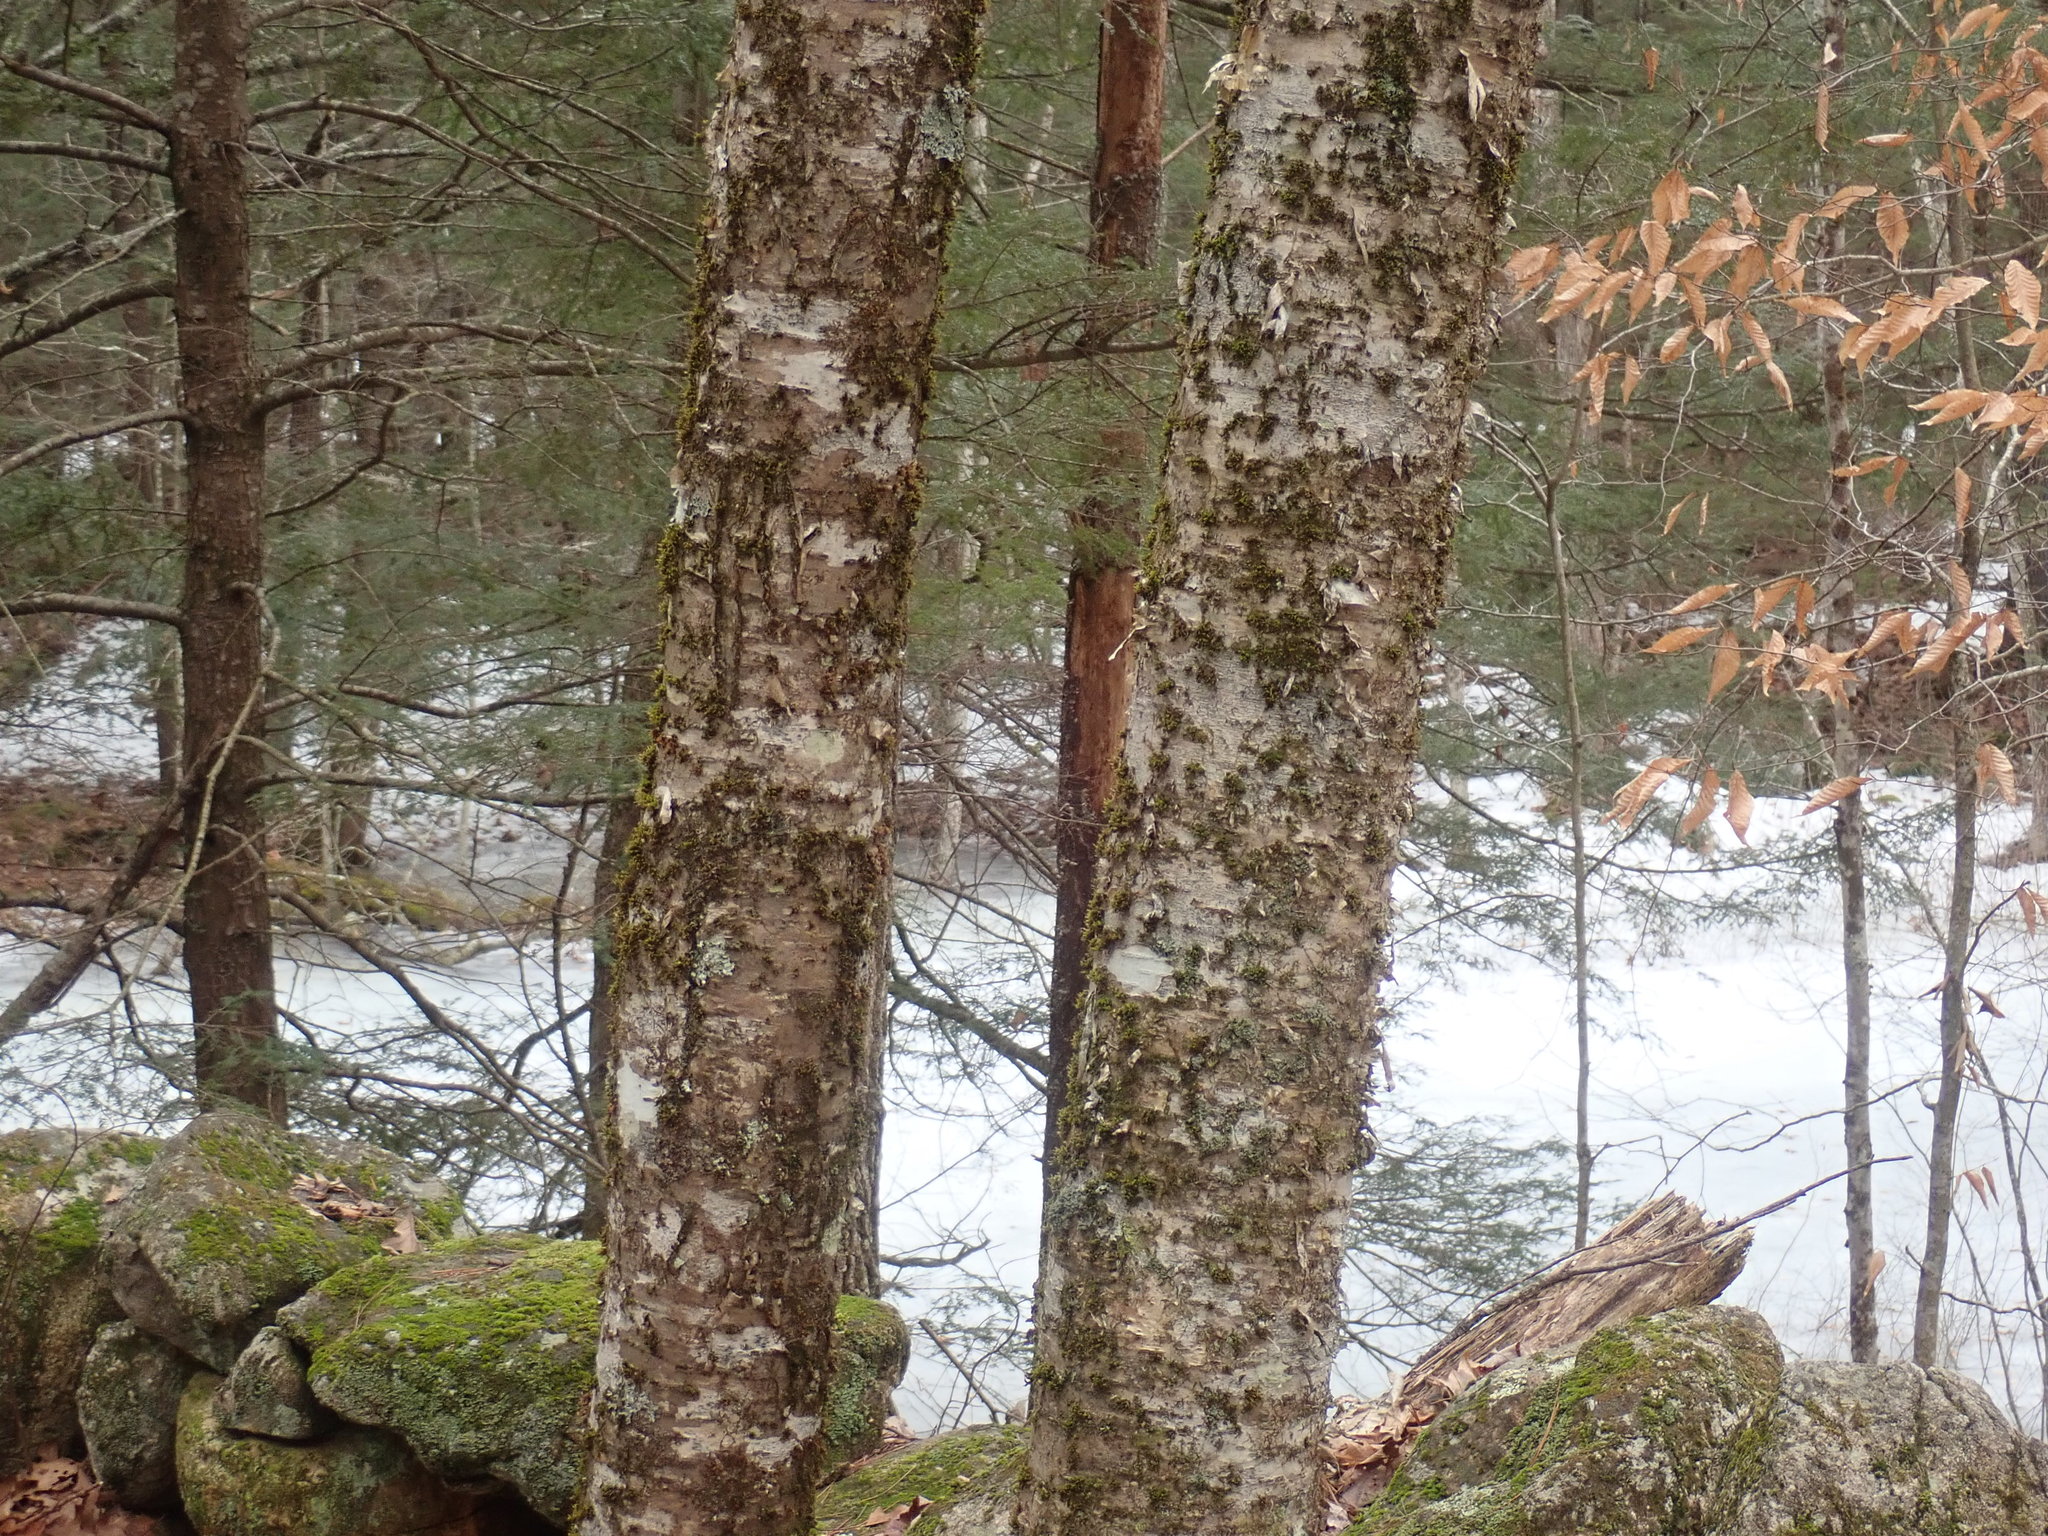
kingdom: Plantae
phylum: Tracheophyta
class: Magnoliopsida
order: Fagales
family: Betulaceae
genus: Betula
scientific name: Betula alleghaniensis
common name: Yellow birch
